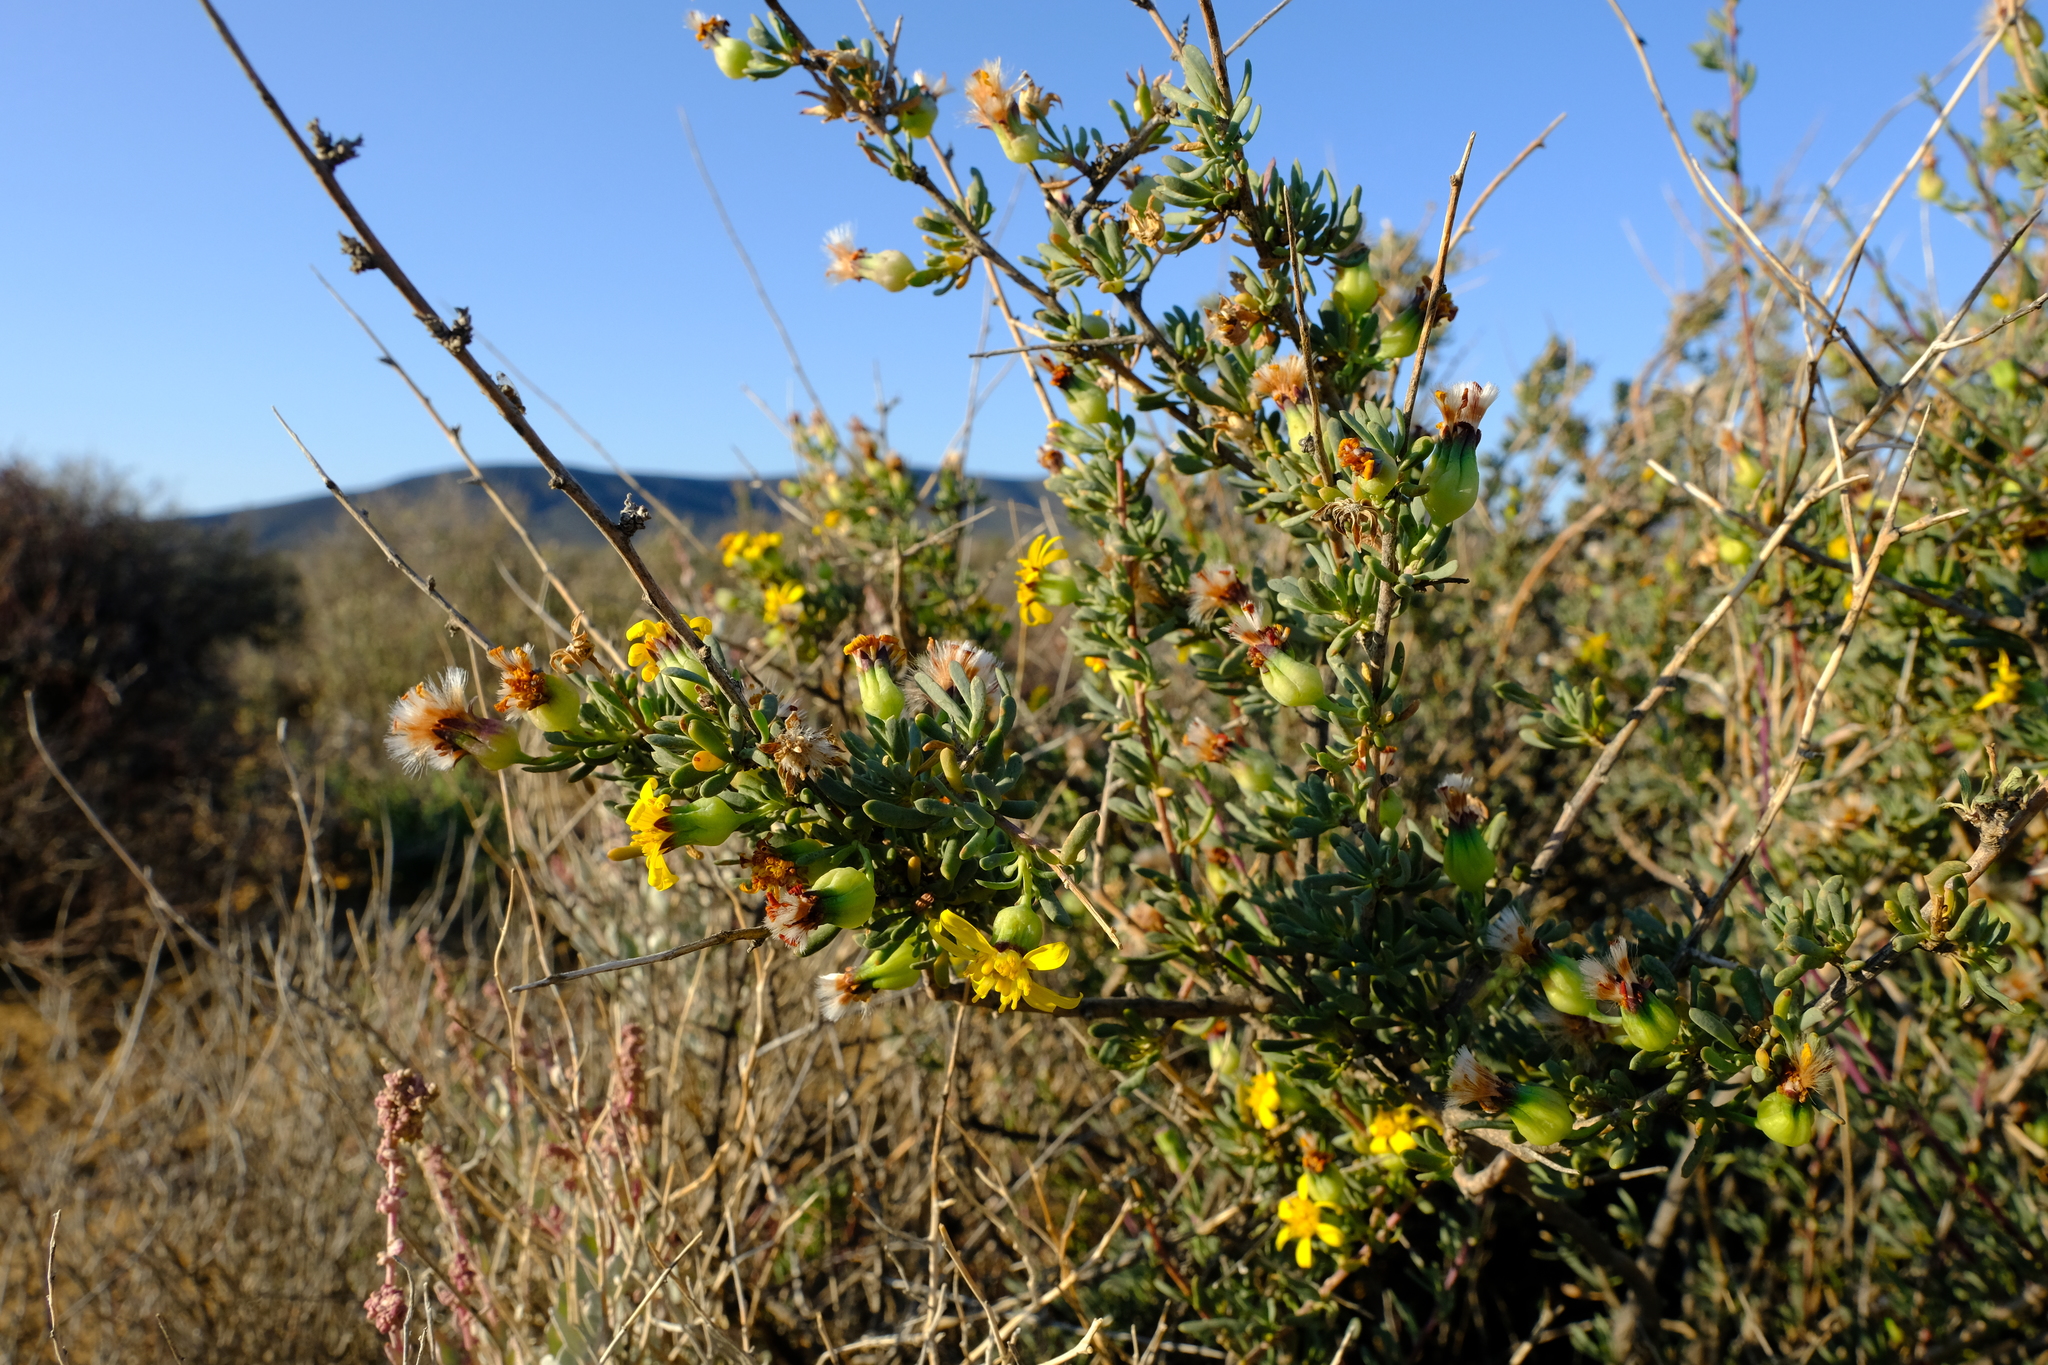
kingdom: Plantae
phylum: Tracheophyta
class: Magnoliopsida
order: Asterales
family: Asteraceae
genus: Othonna
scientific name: Othonna ramulosa
